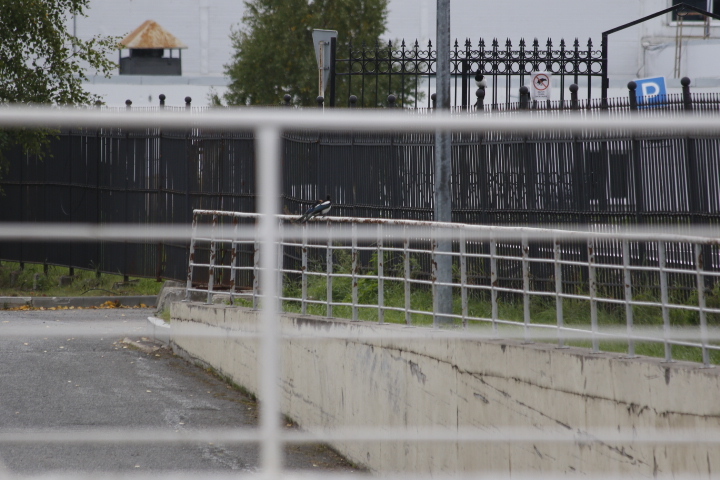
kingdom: Animalia
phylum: Chordata
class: Aves
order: Passeriformes
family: Corvidae
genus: Pica
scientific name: Pica pica
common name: Eurasian magpie
